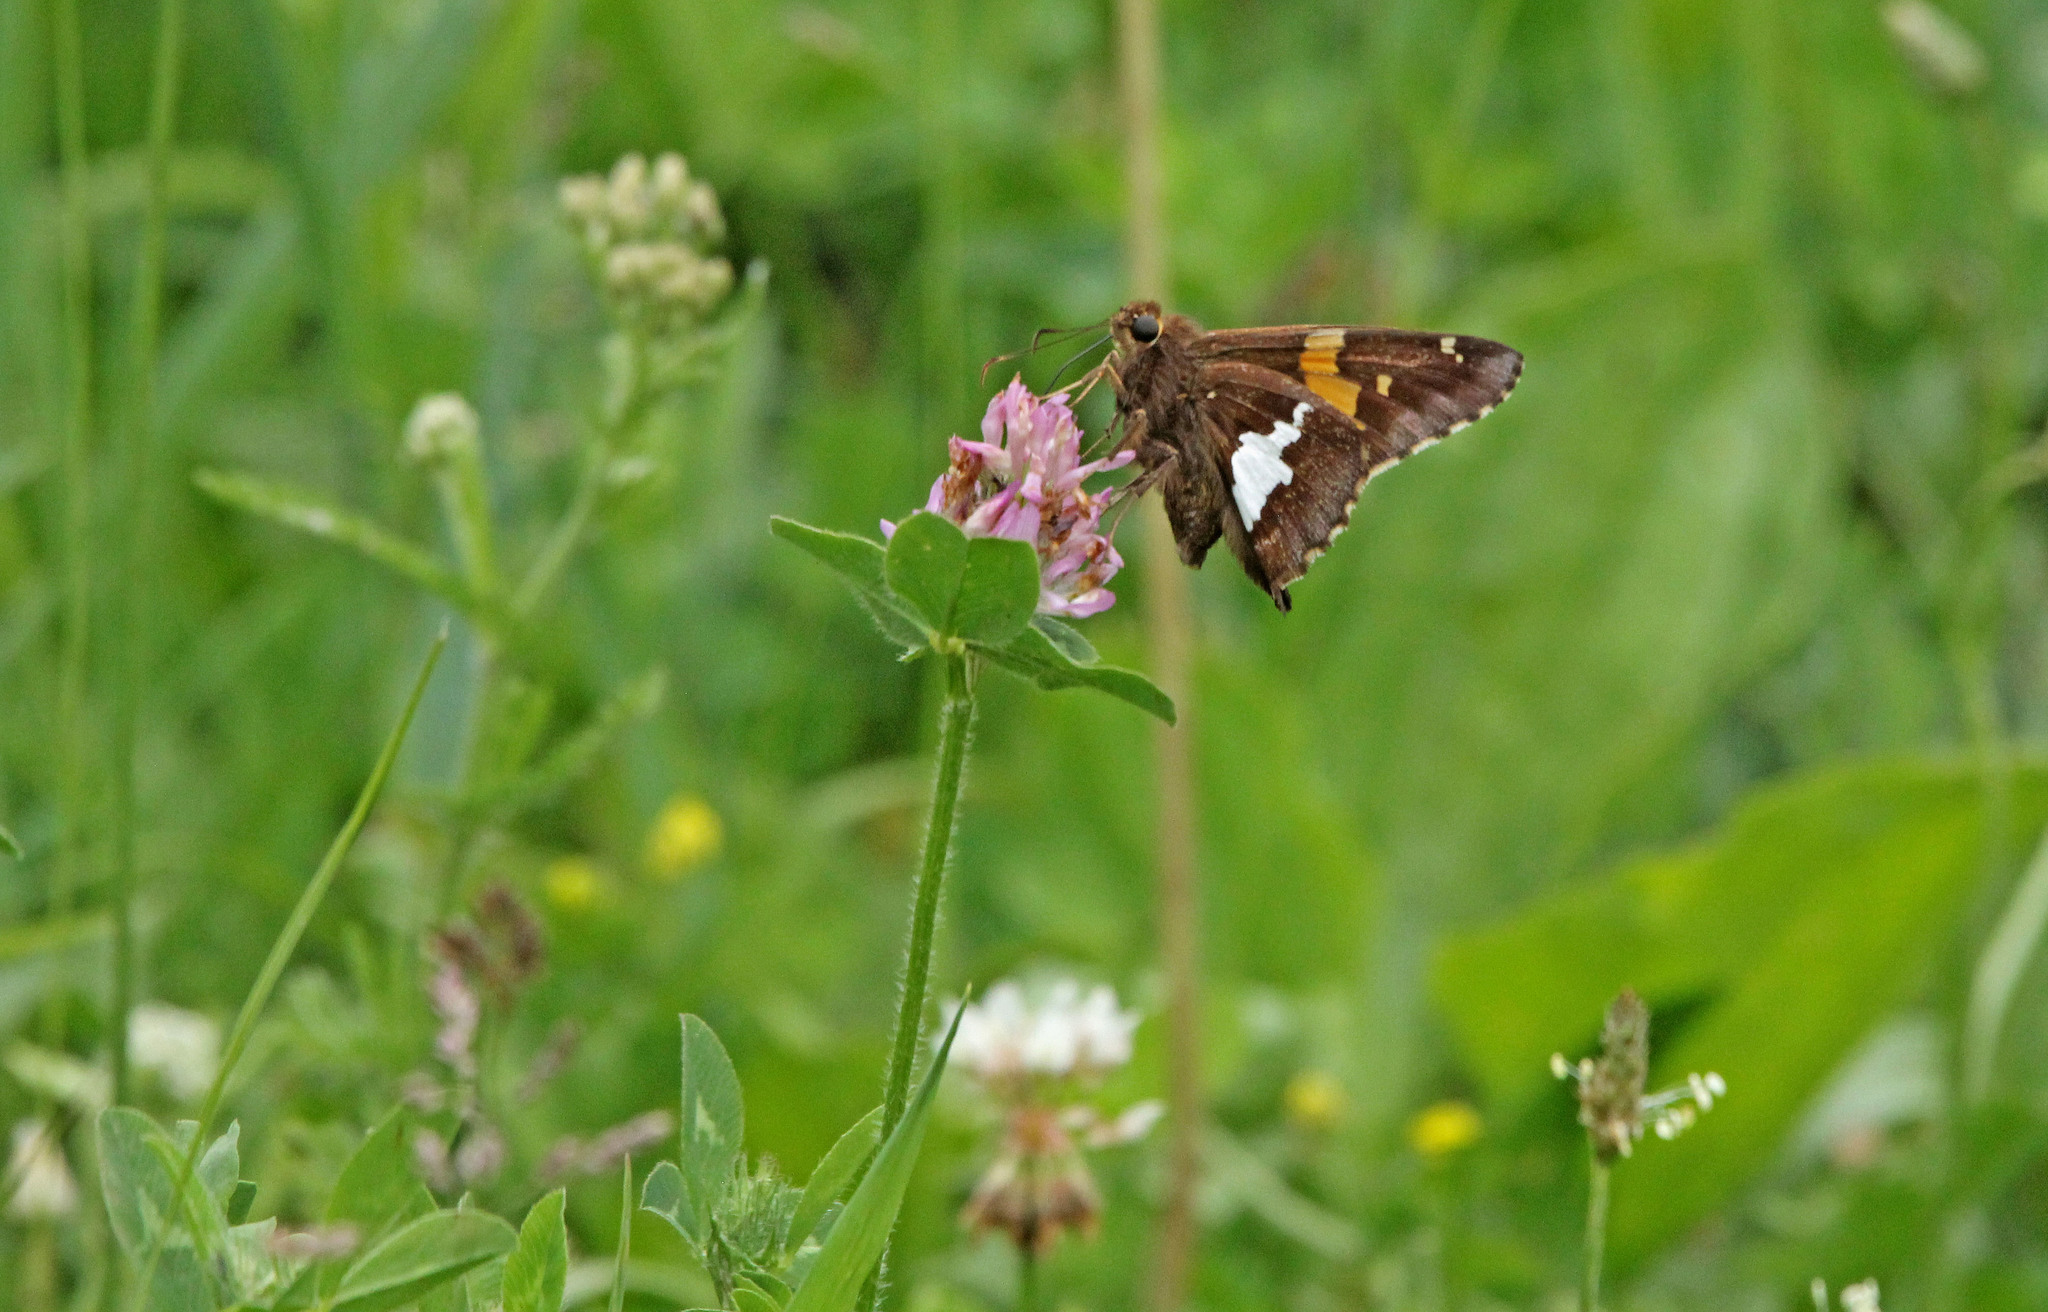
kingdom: Animalia
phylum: Arthropoda
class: Insecta
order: Lepidoptera
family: Hesperiidae
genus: Epargyreus
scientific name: Epargyreus clarus
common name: Silver-spotted skipper
